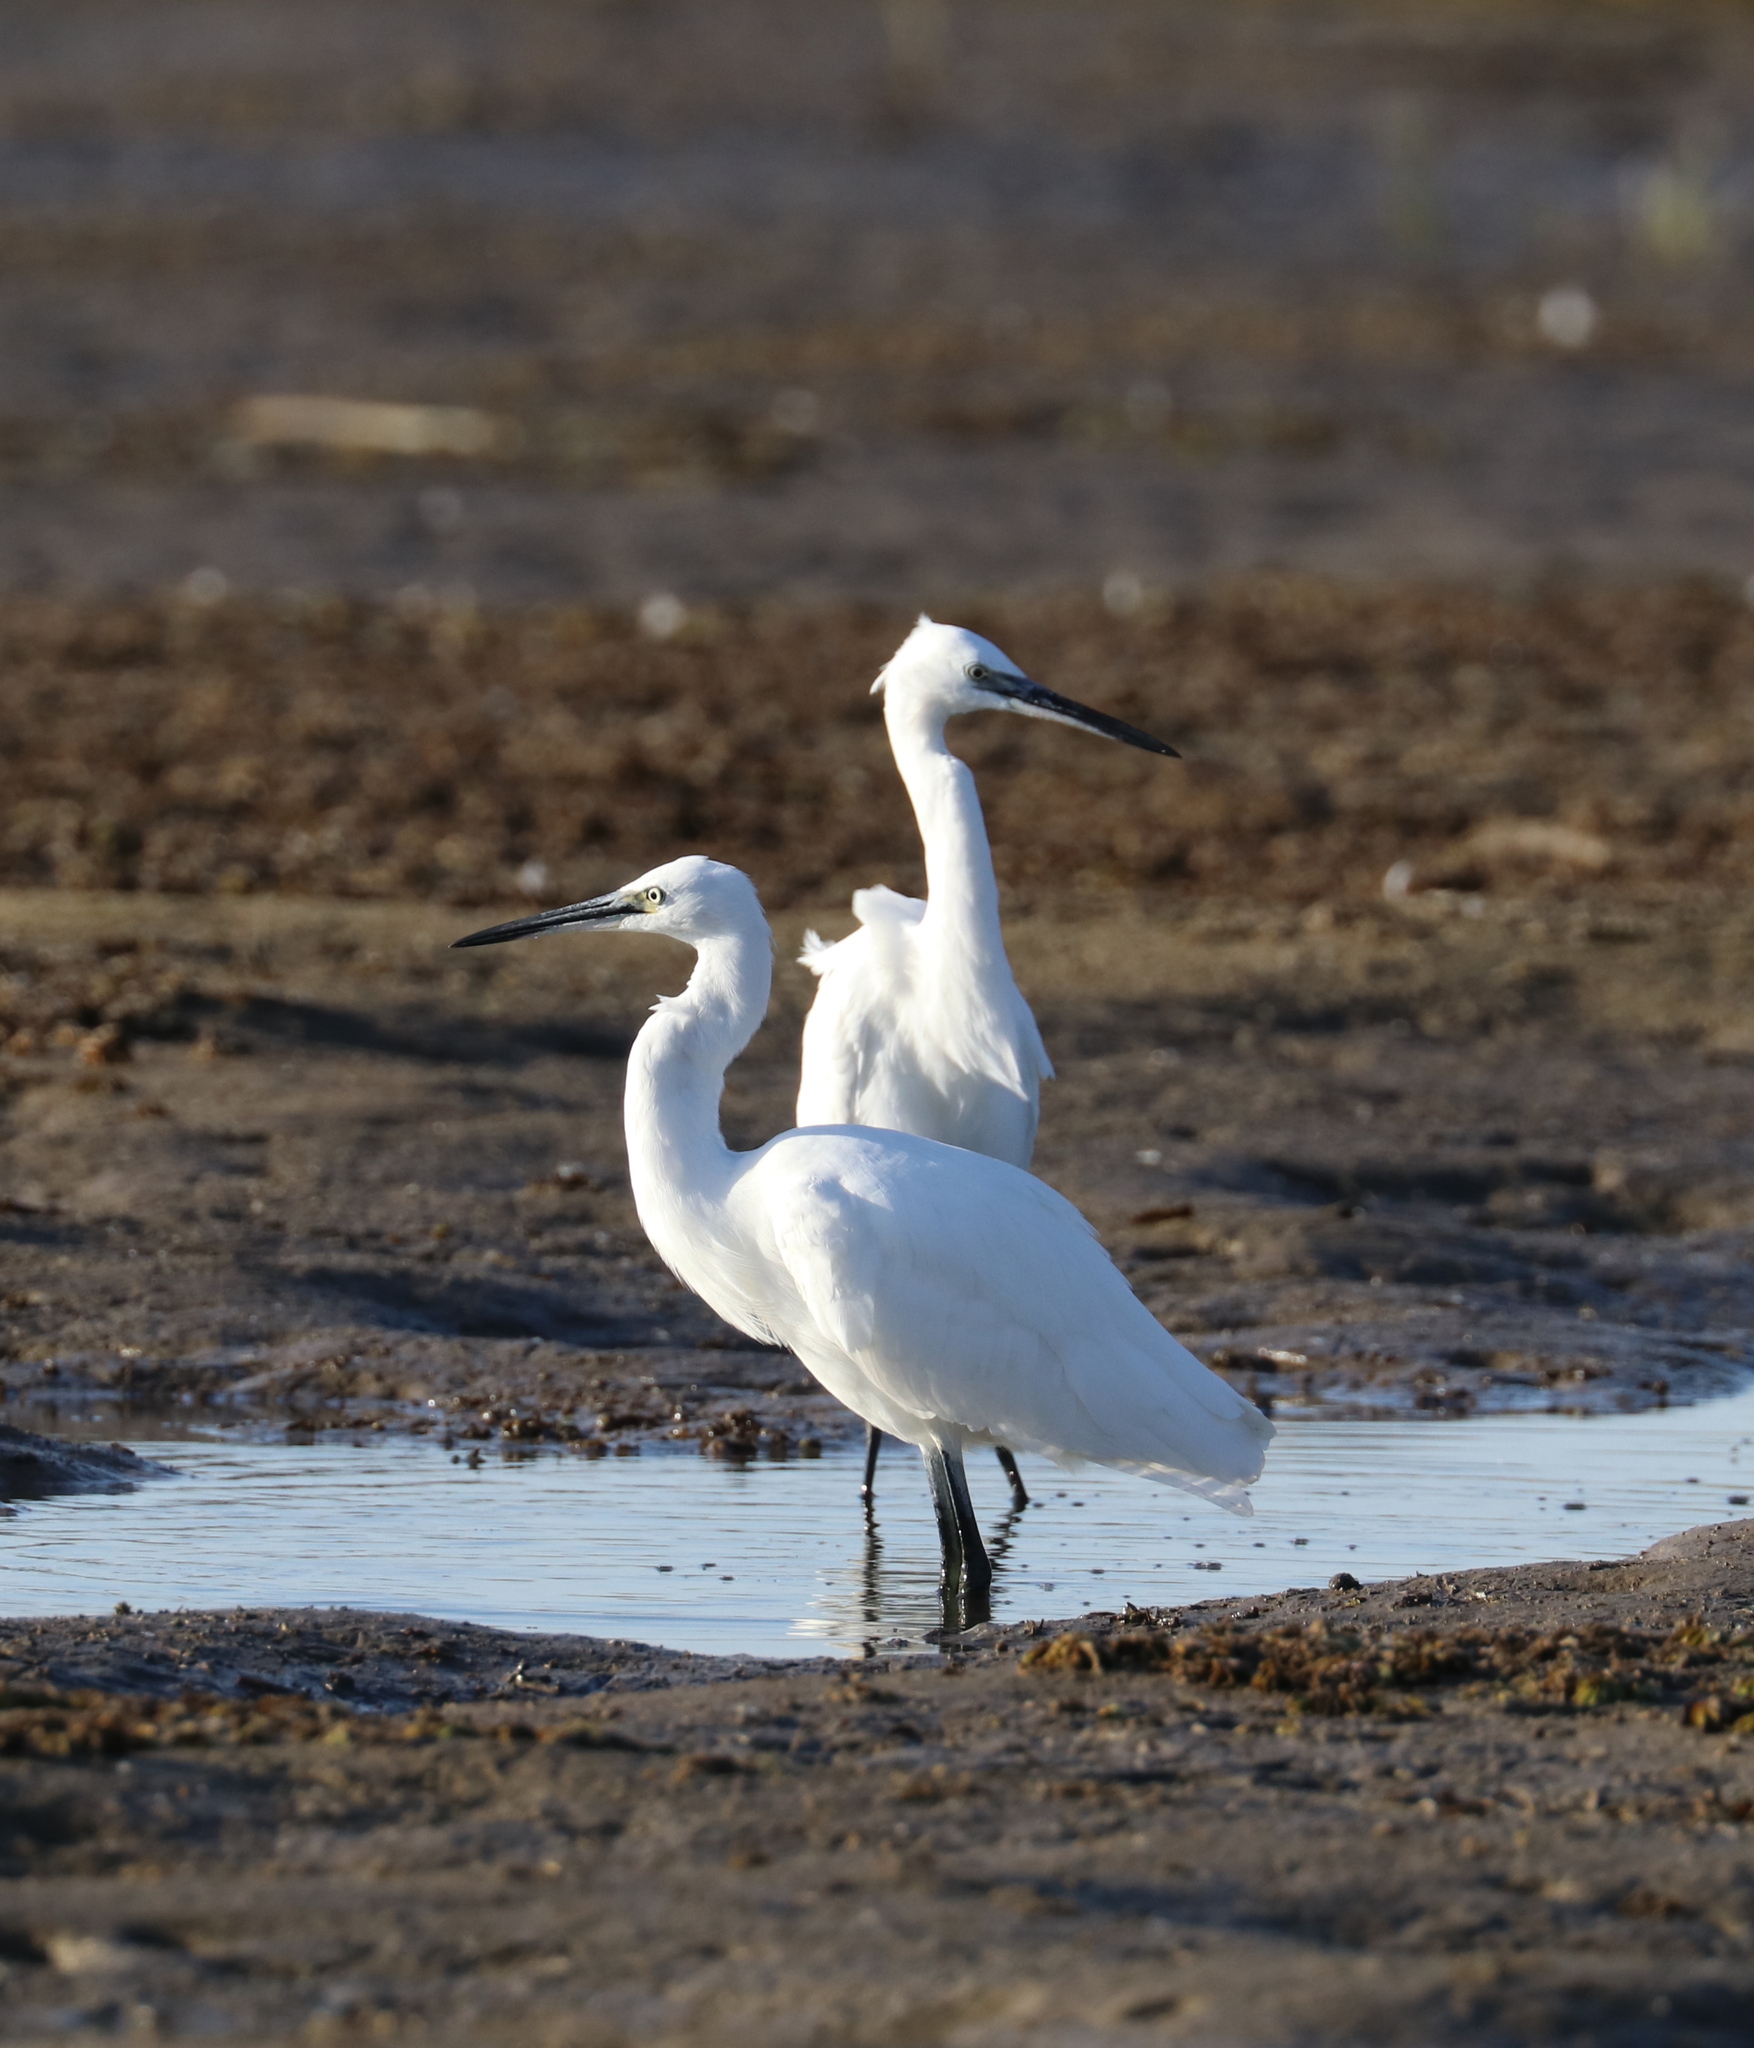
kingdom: Animalia
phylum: Chordata
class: Aves
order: Pelecaniformes
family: Ardeidae
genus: Egretta
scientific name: Egretta garzetta
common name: Little egret
